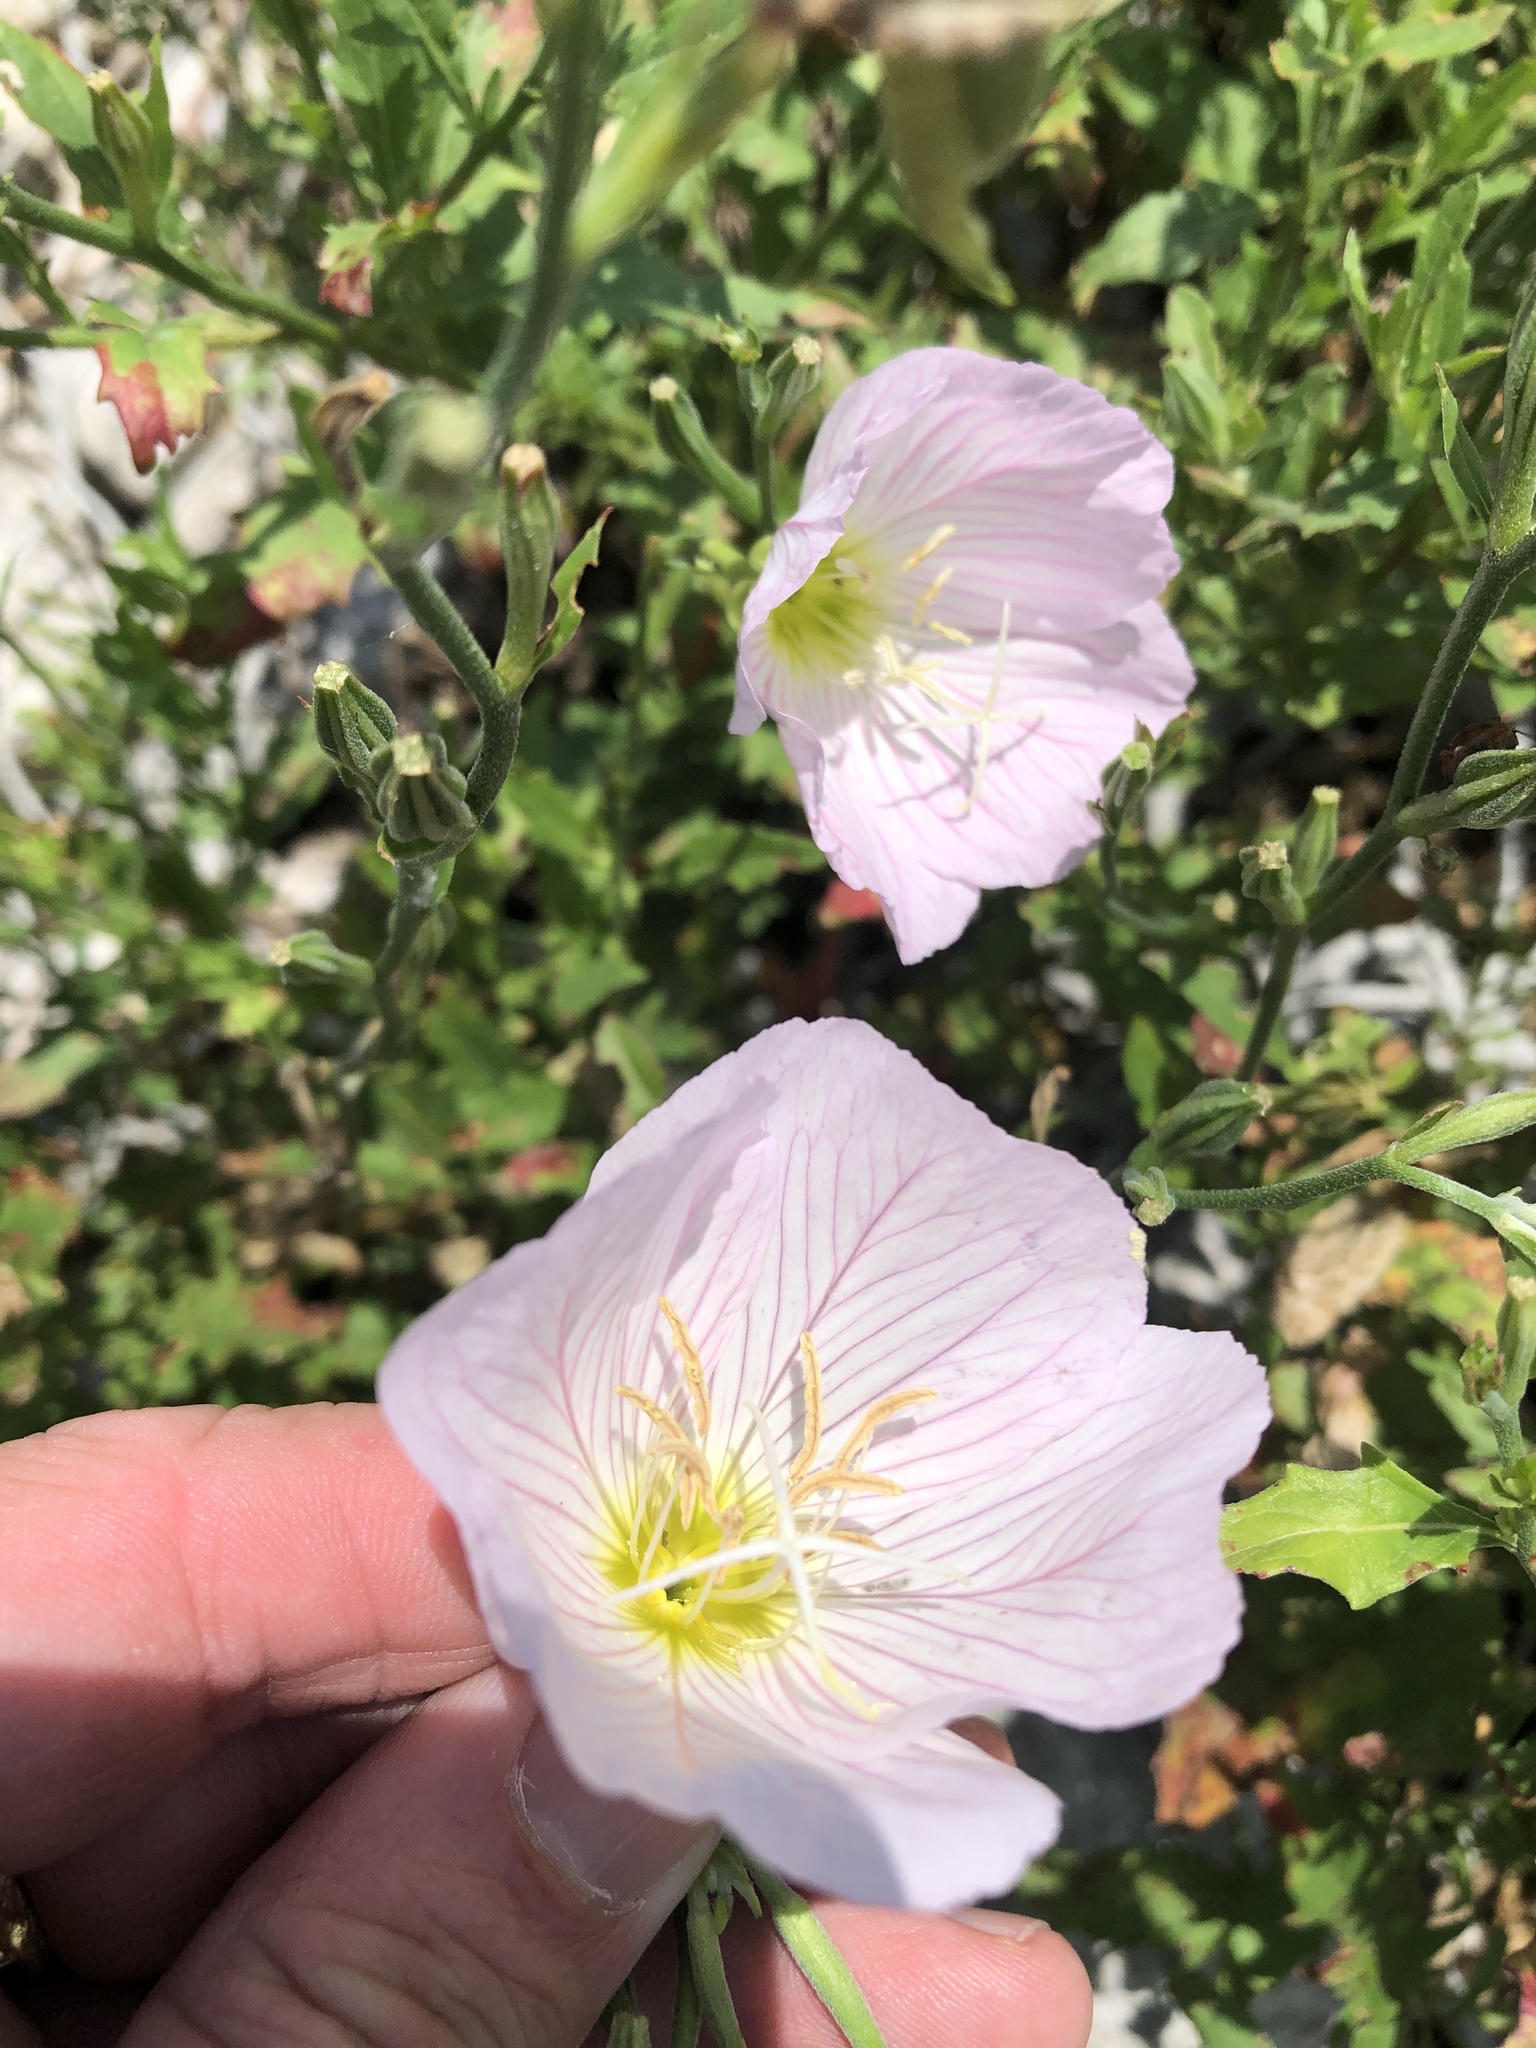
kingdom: Plantae
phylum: Tracheophyta
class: Magnoliopsida
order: Myrtales
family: Onagraceae
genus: Oenothera
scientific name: Oenothera speciosa
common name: White evening-primrose
